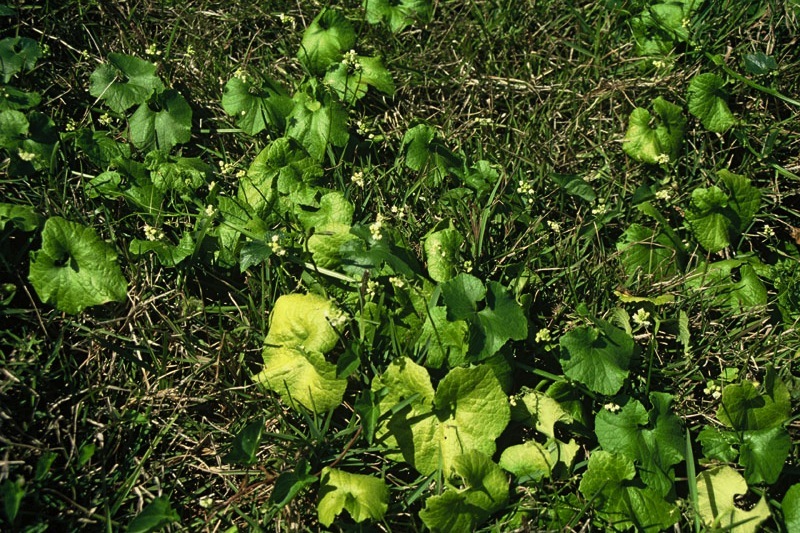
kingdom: Plantae
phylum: Tracheophyta
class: Magnoliopsida
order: Cucurbitales
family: Cucurbitaceae
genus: Sicyos
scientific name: Sicyos mawhai
